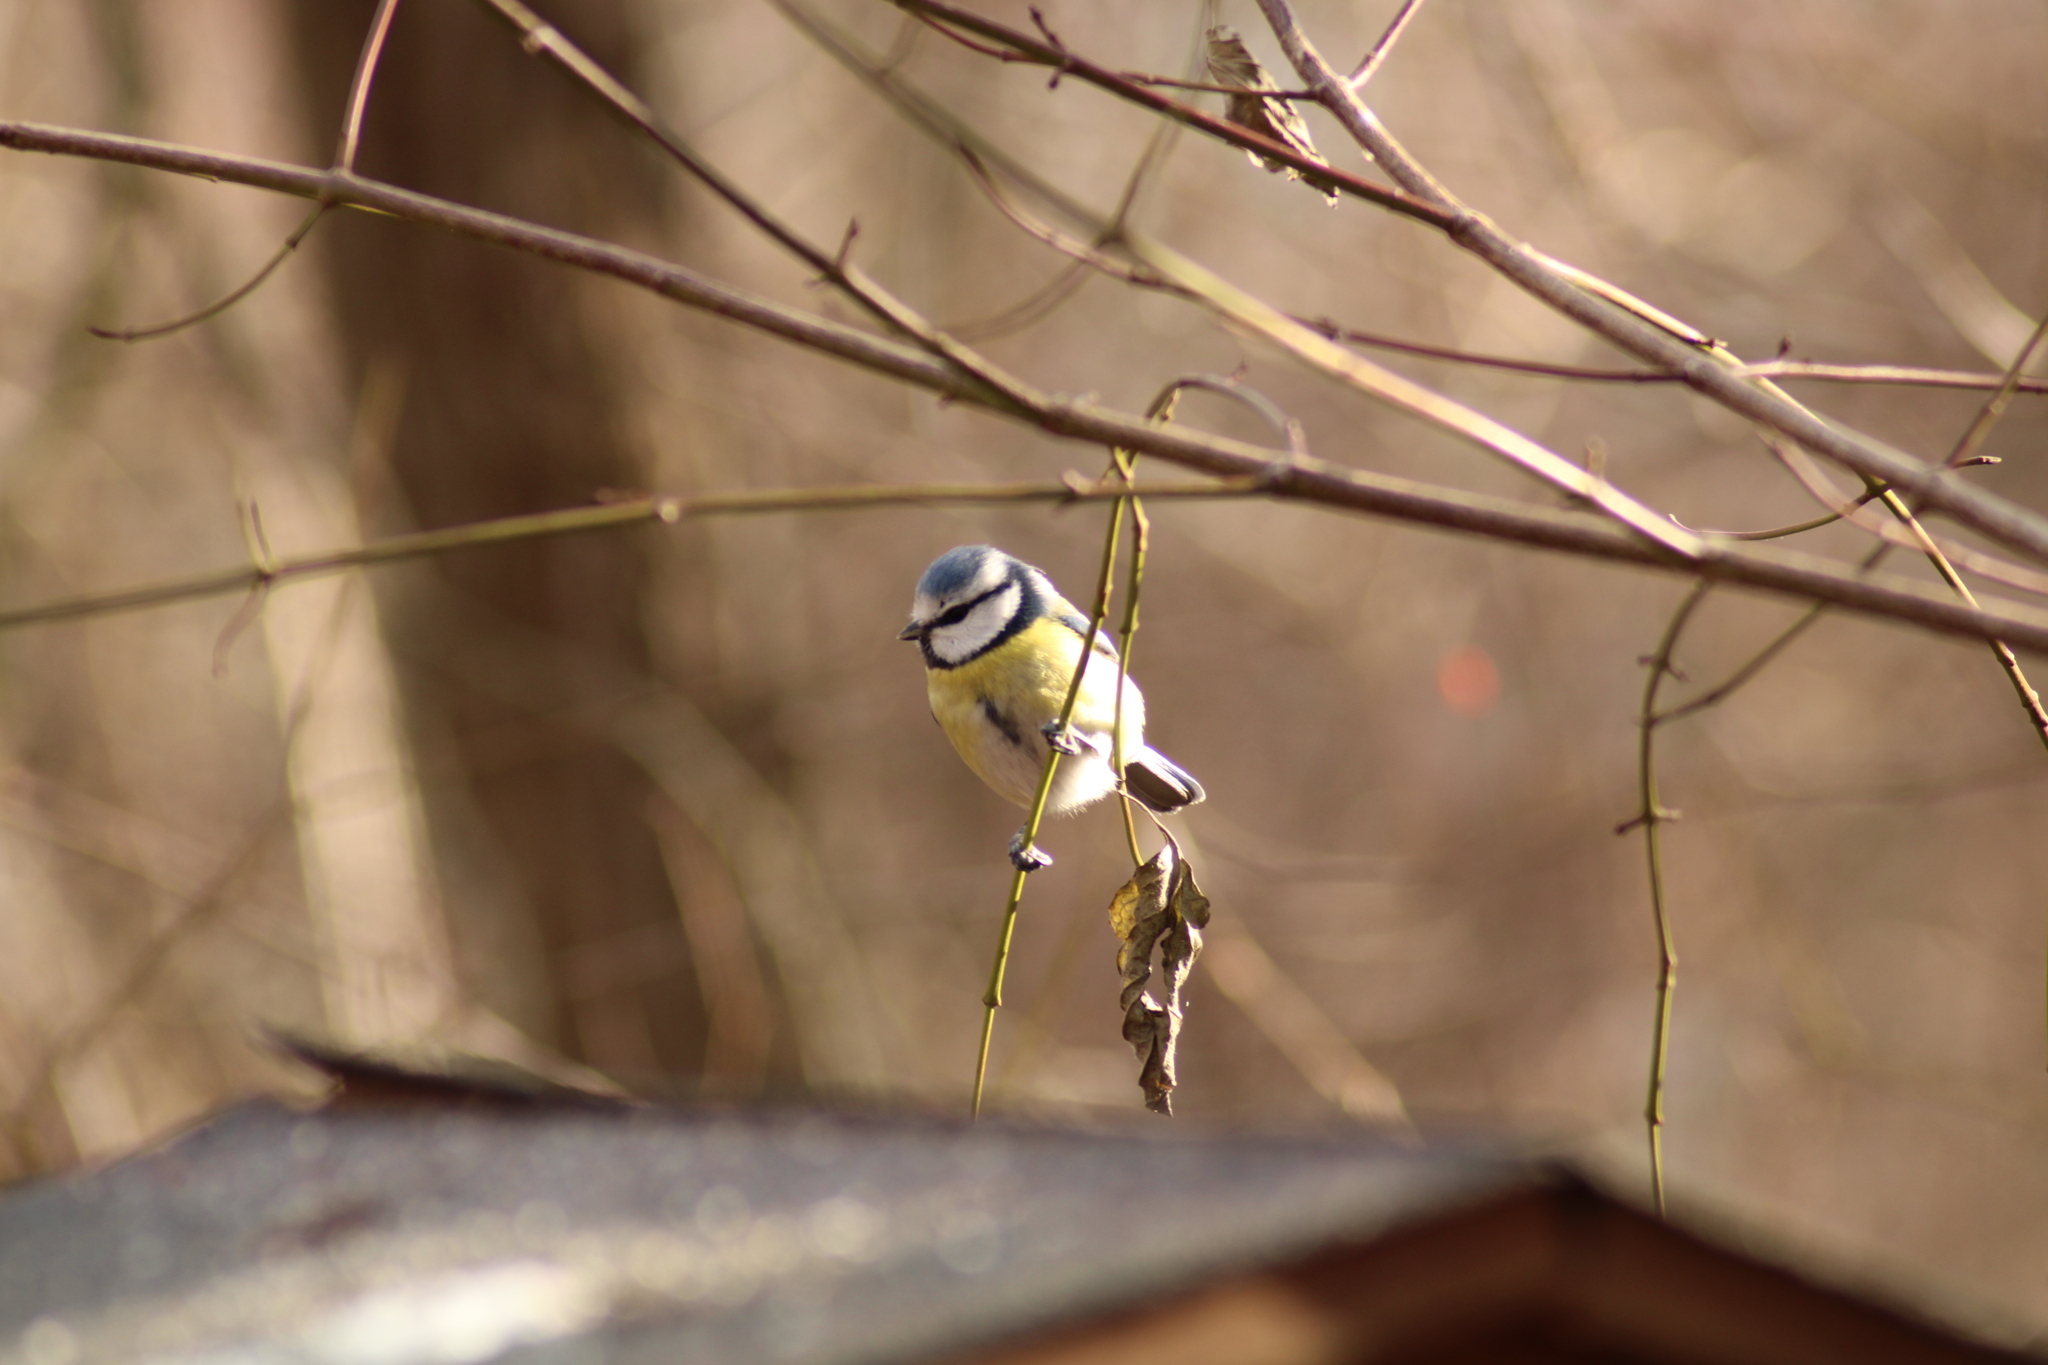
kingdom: Animalia
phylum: Chordata
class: Aves
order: Passeriformes
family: Paridae
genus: Cyanistes
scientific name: Cyanistes caeruleus
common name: Eurasian blue tit
